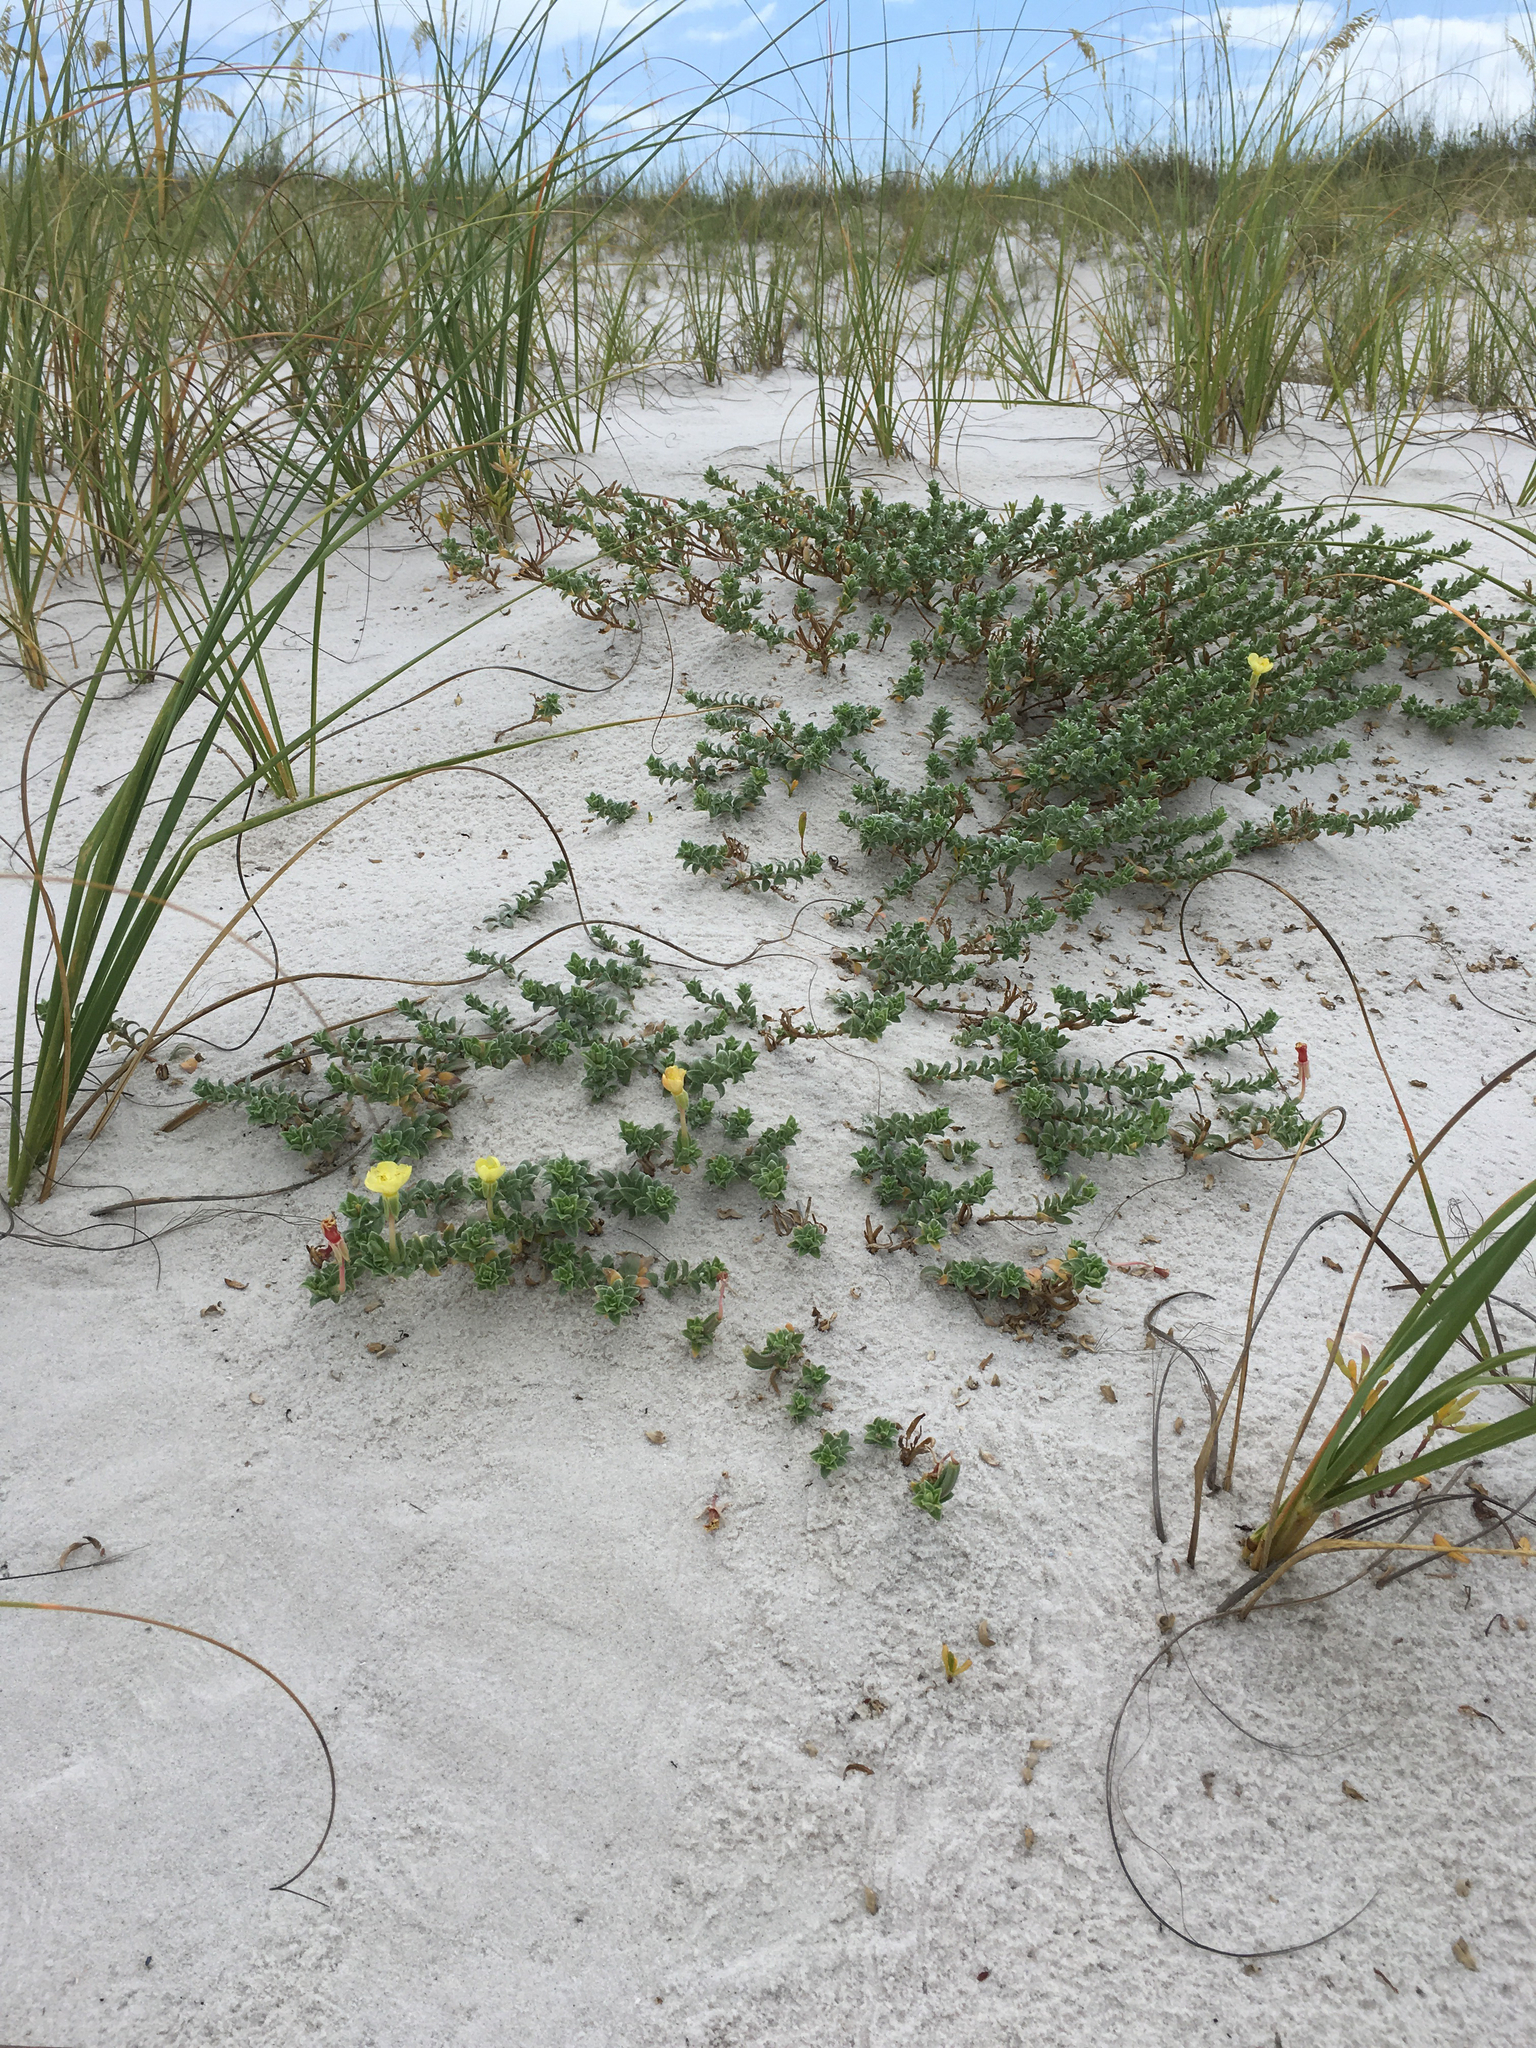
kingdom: Plantae
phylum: Tracheophyta
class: Magnoliopsida
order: Myrtales
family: Onagraceae
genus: Oenothera
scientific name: Oenothera humifusa
